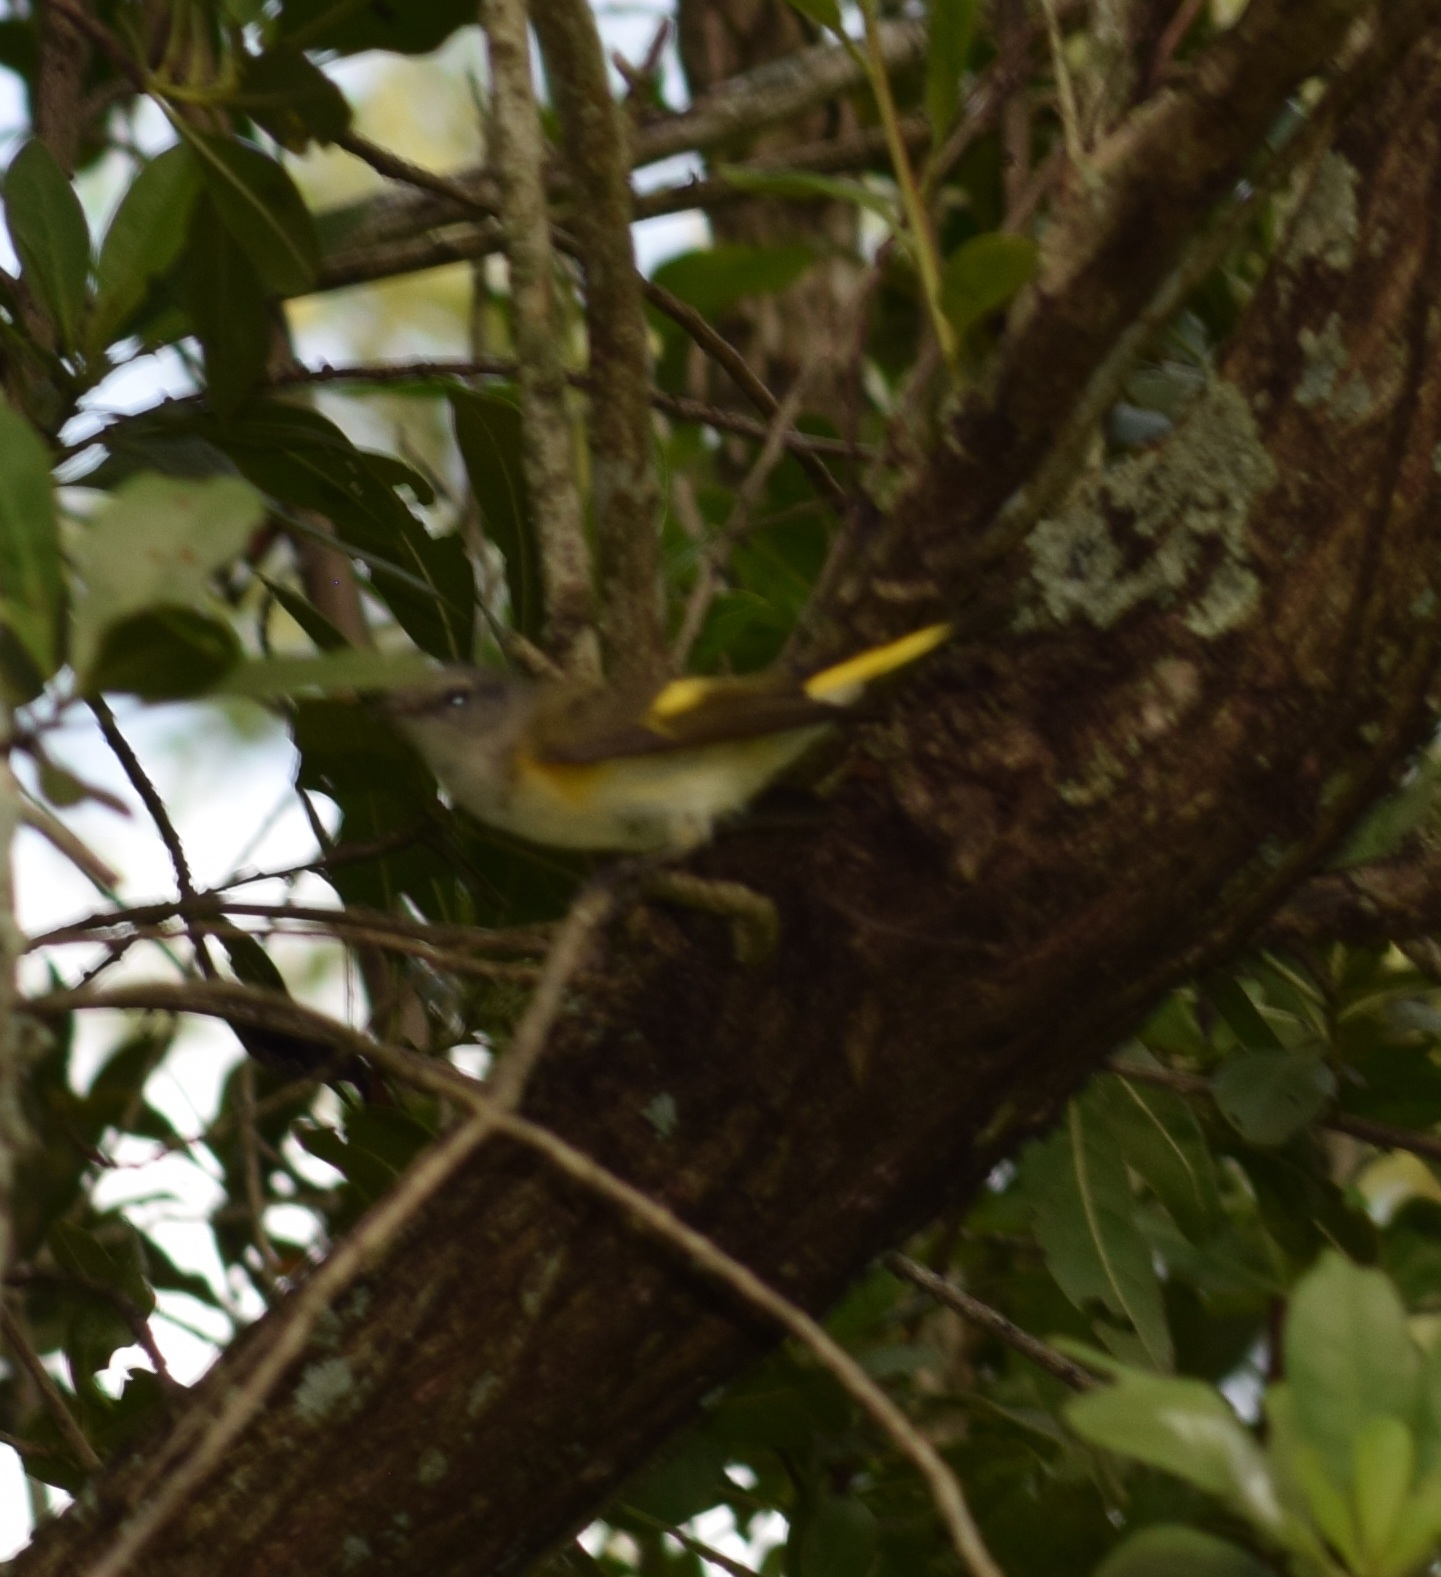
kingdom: Animalia
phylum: Chordata
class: Aves
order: Passeriformes
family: Parulidae
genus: Setophaga
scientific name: Setophaga ruticilla
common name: American redstart
